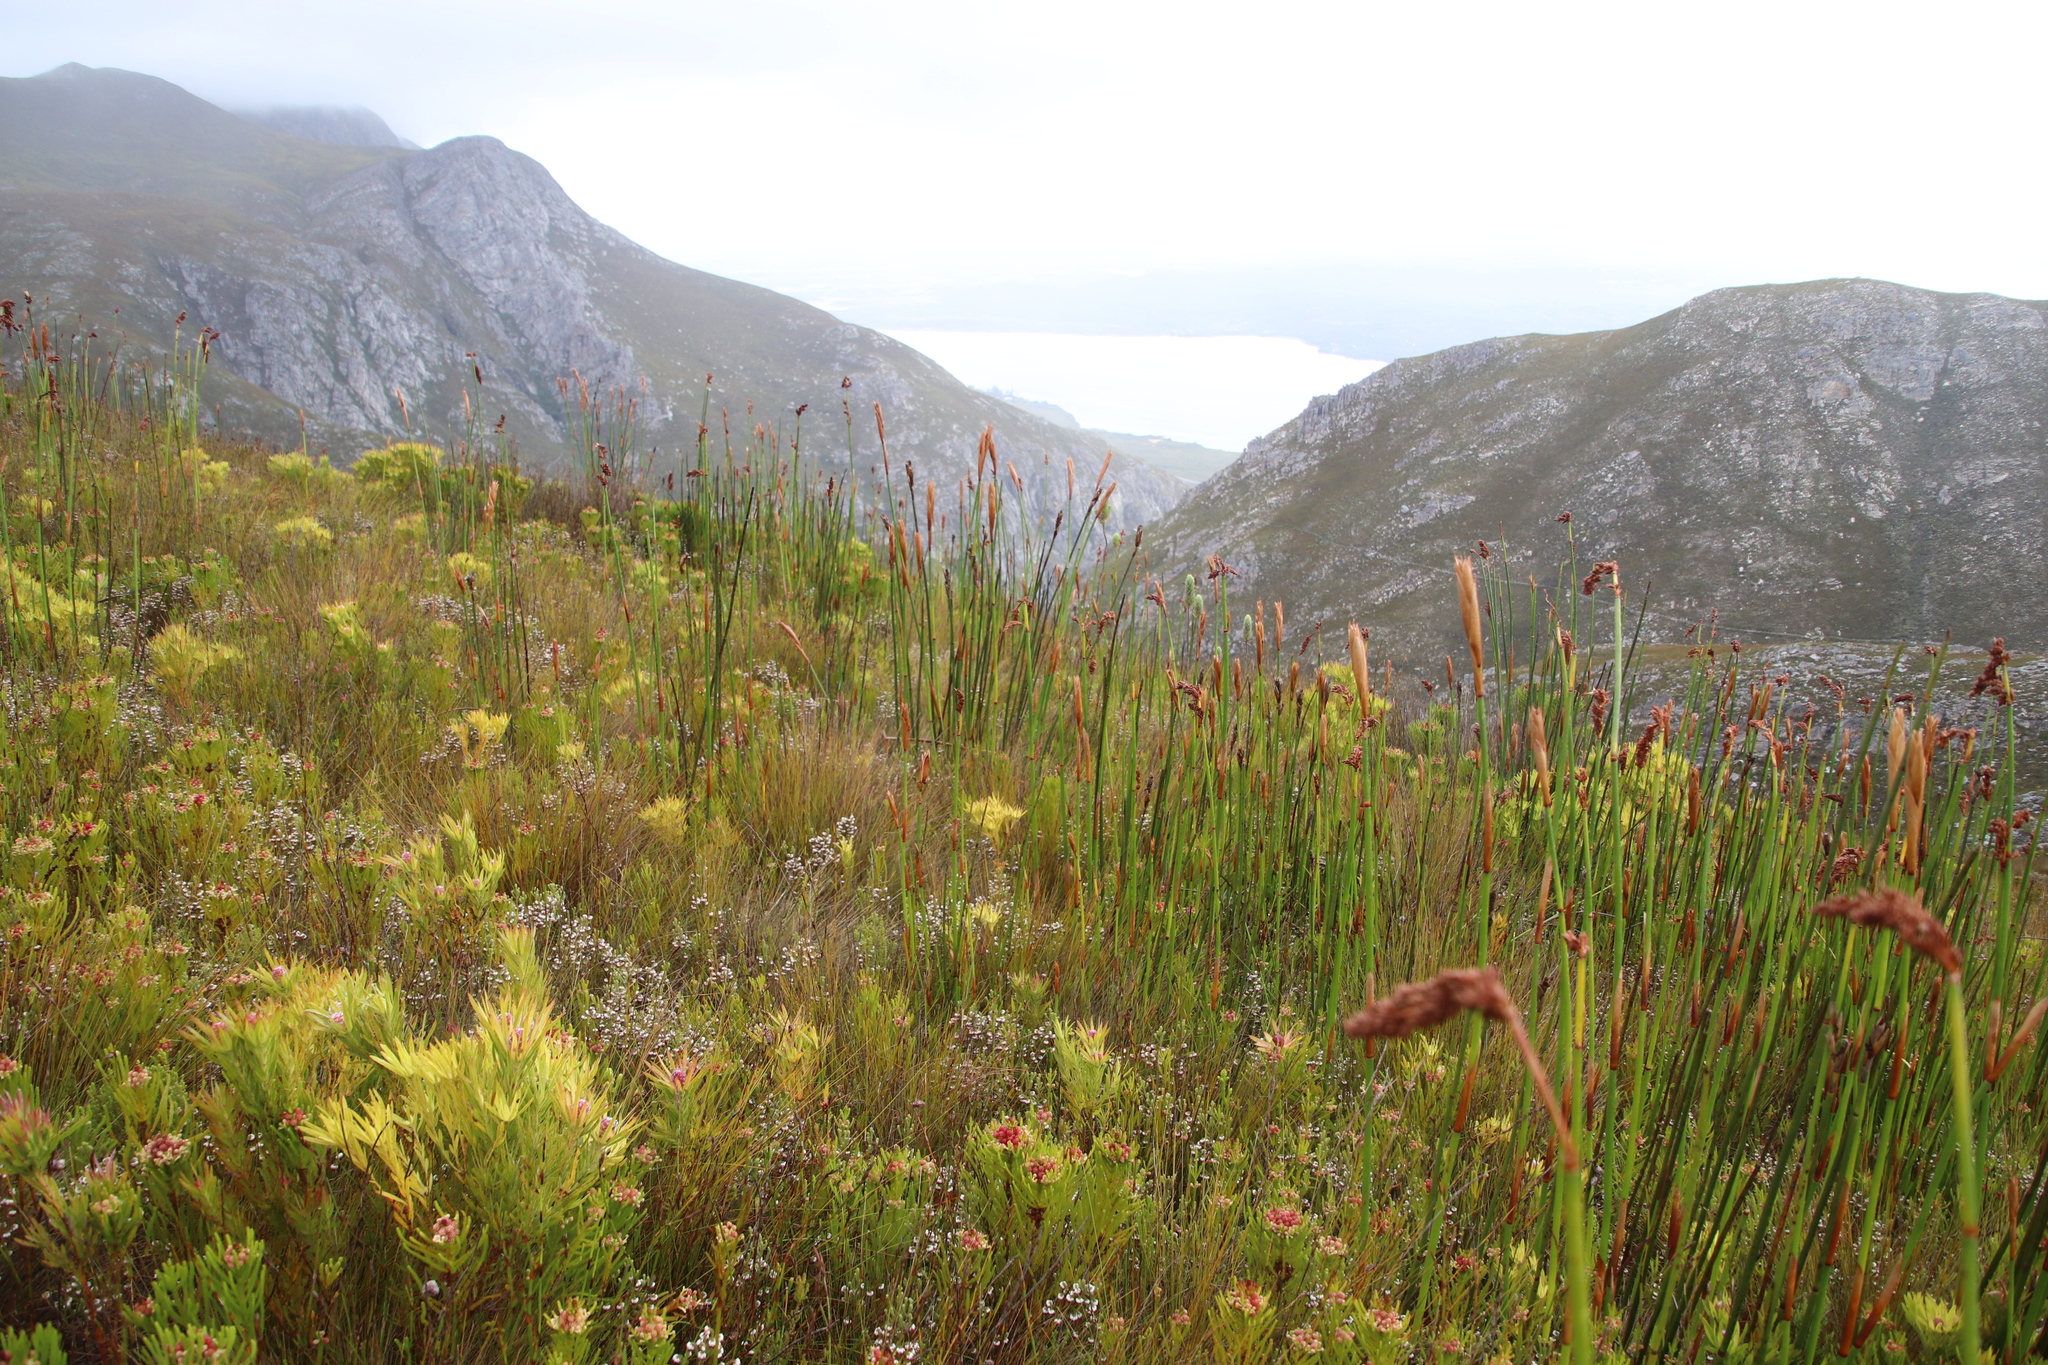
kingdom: Plantae
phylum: Tracheophyta
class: Liliopsida
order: Poales
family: Restionaceae
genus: Elegia
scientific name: Elegia mucronata
